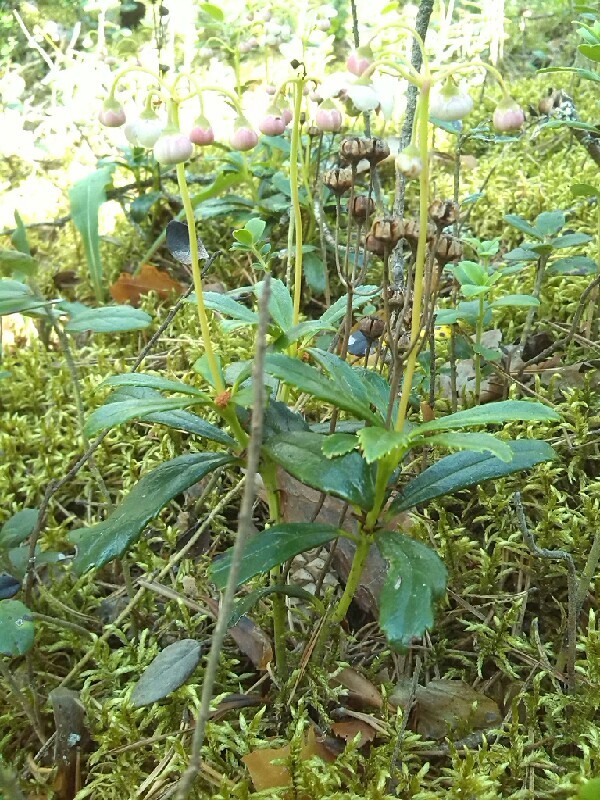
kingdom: Plantae
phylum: Tracheophyta
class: Magnoliopsida
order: Ericales
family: Ericaceae
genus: Chimaphila
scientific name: Chimaphila umbellata
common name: Pipsissewa
